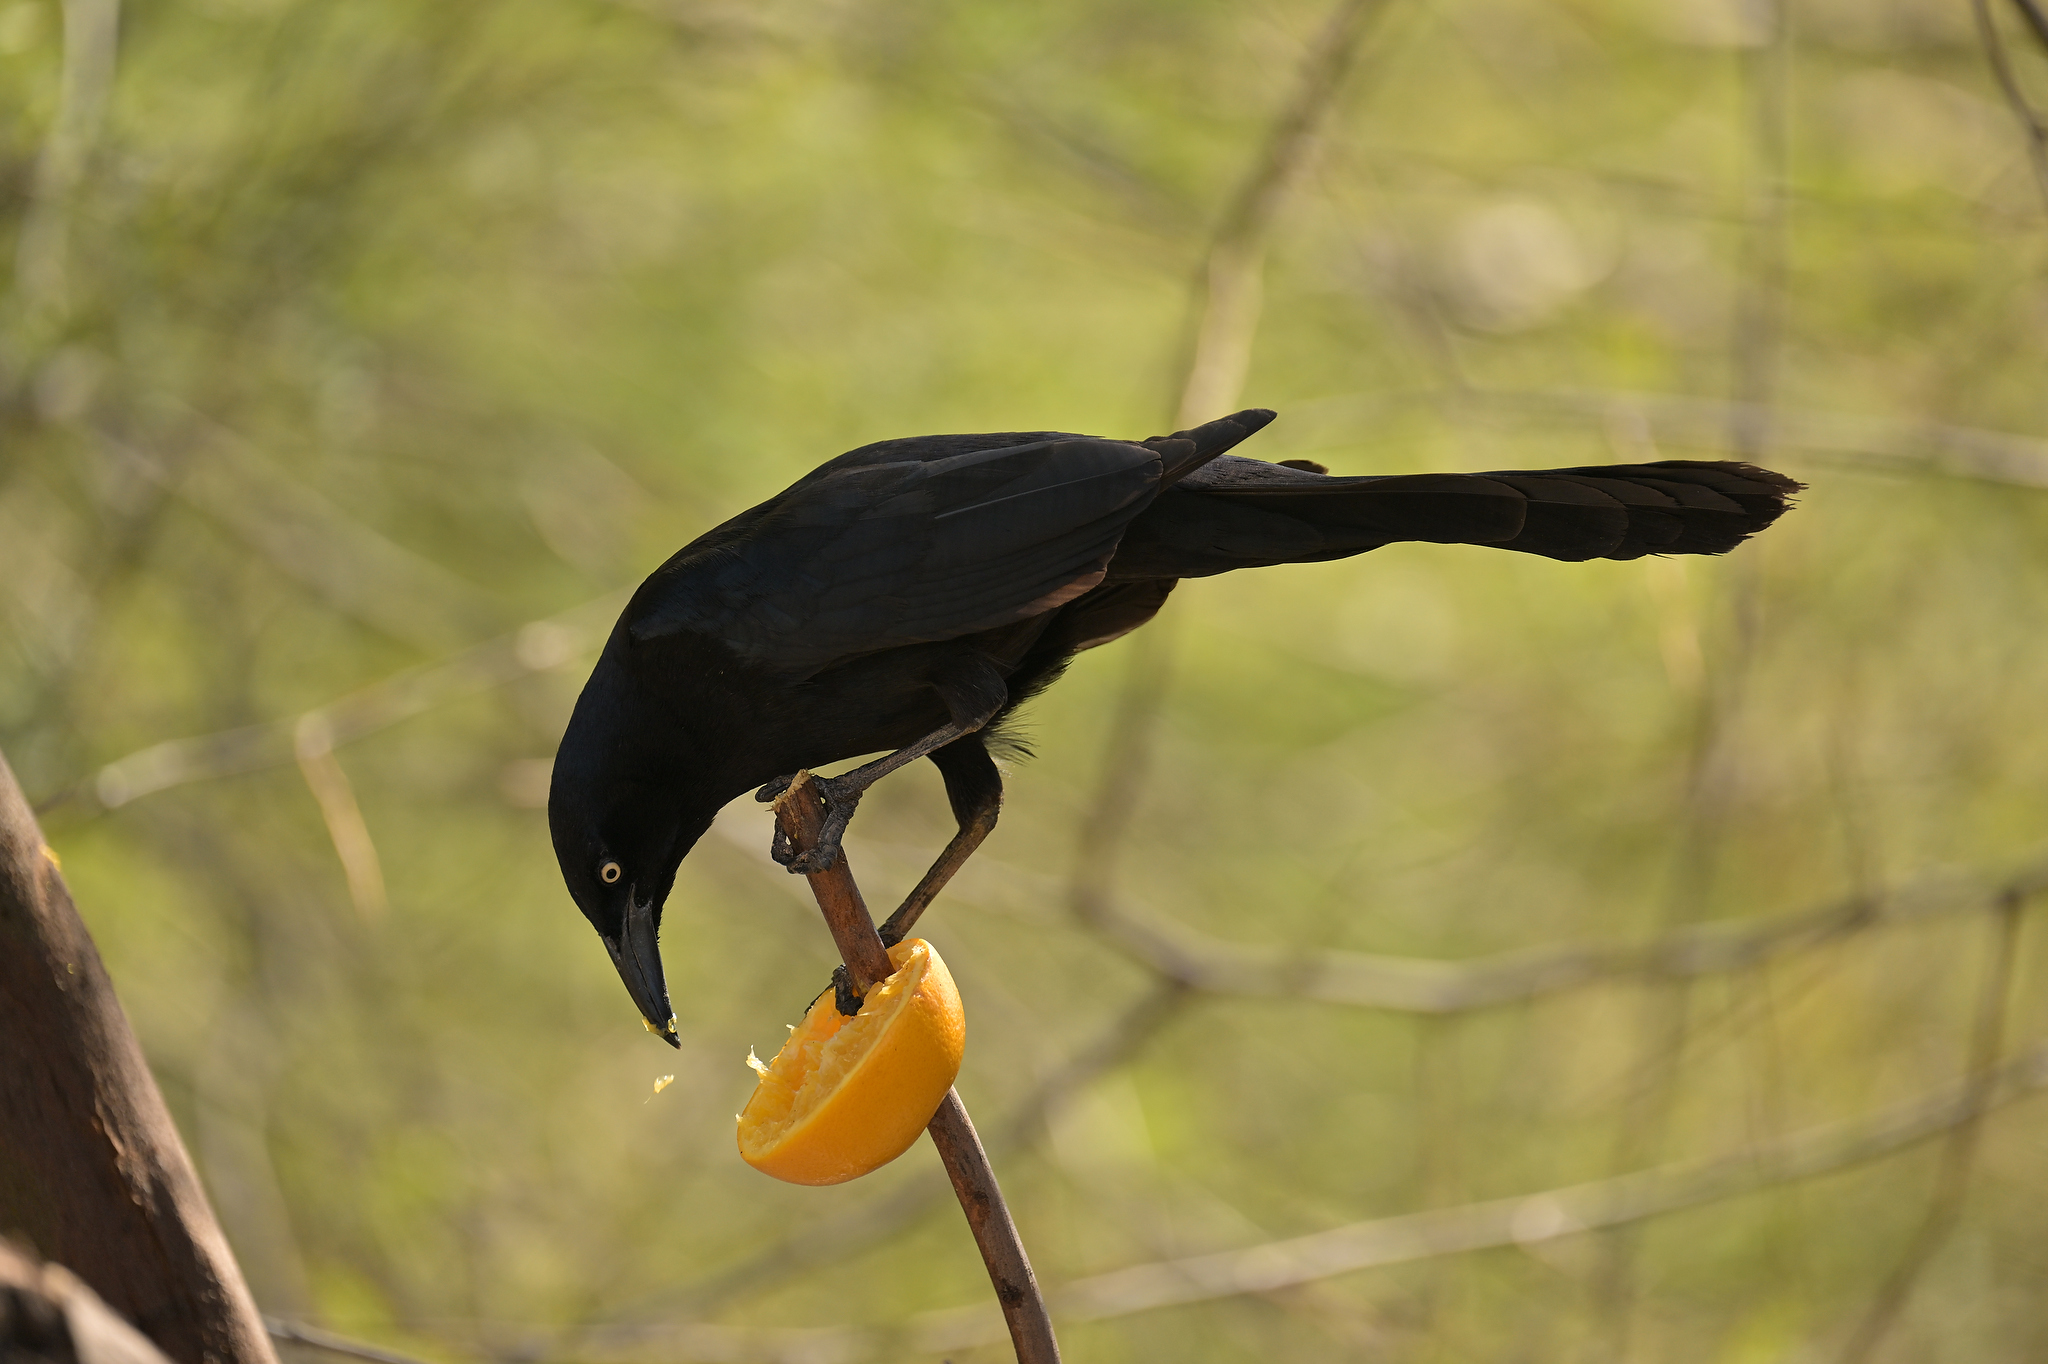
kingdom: Animalia
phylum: Chordata
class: Aves
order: Passeriformes
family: Icteridae
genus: Quiscalus
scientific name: Quiscalus mexicanus
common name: Great-tailed grackle
